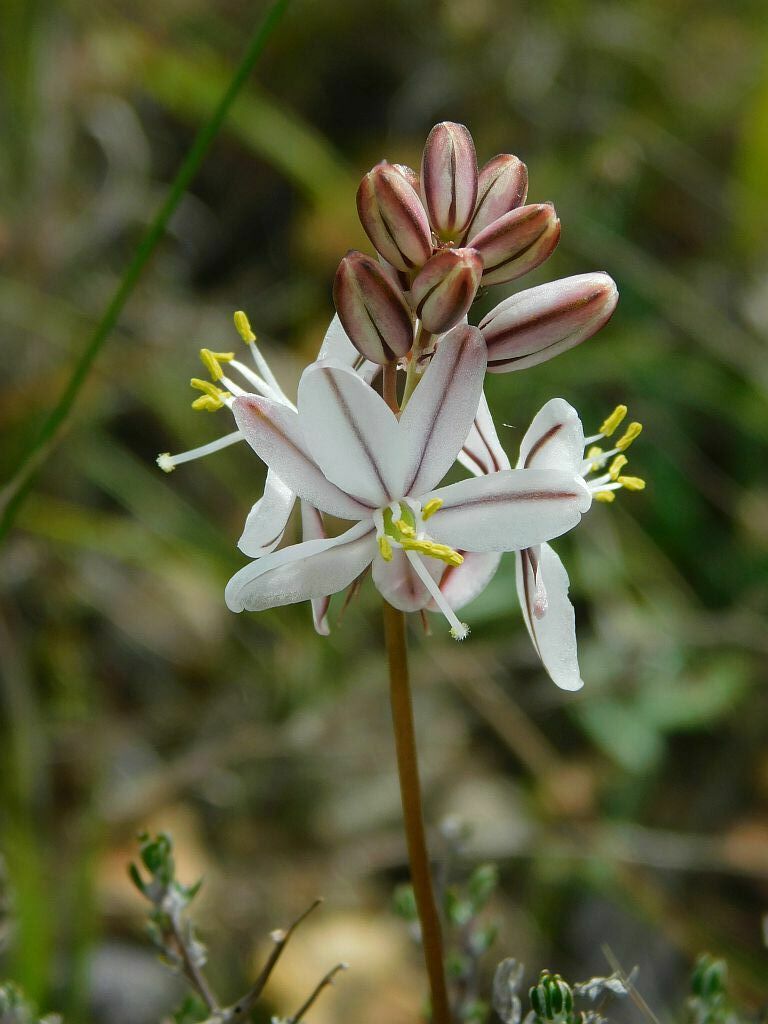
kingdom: Plantae
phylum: Tracheophyta
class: Liliopsida
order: Asparagales
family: Asparagaceae
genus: Drimia
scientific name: Drimia exuviata
